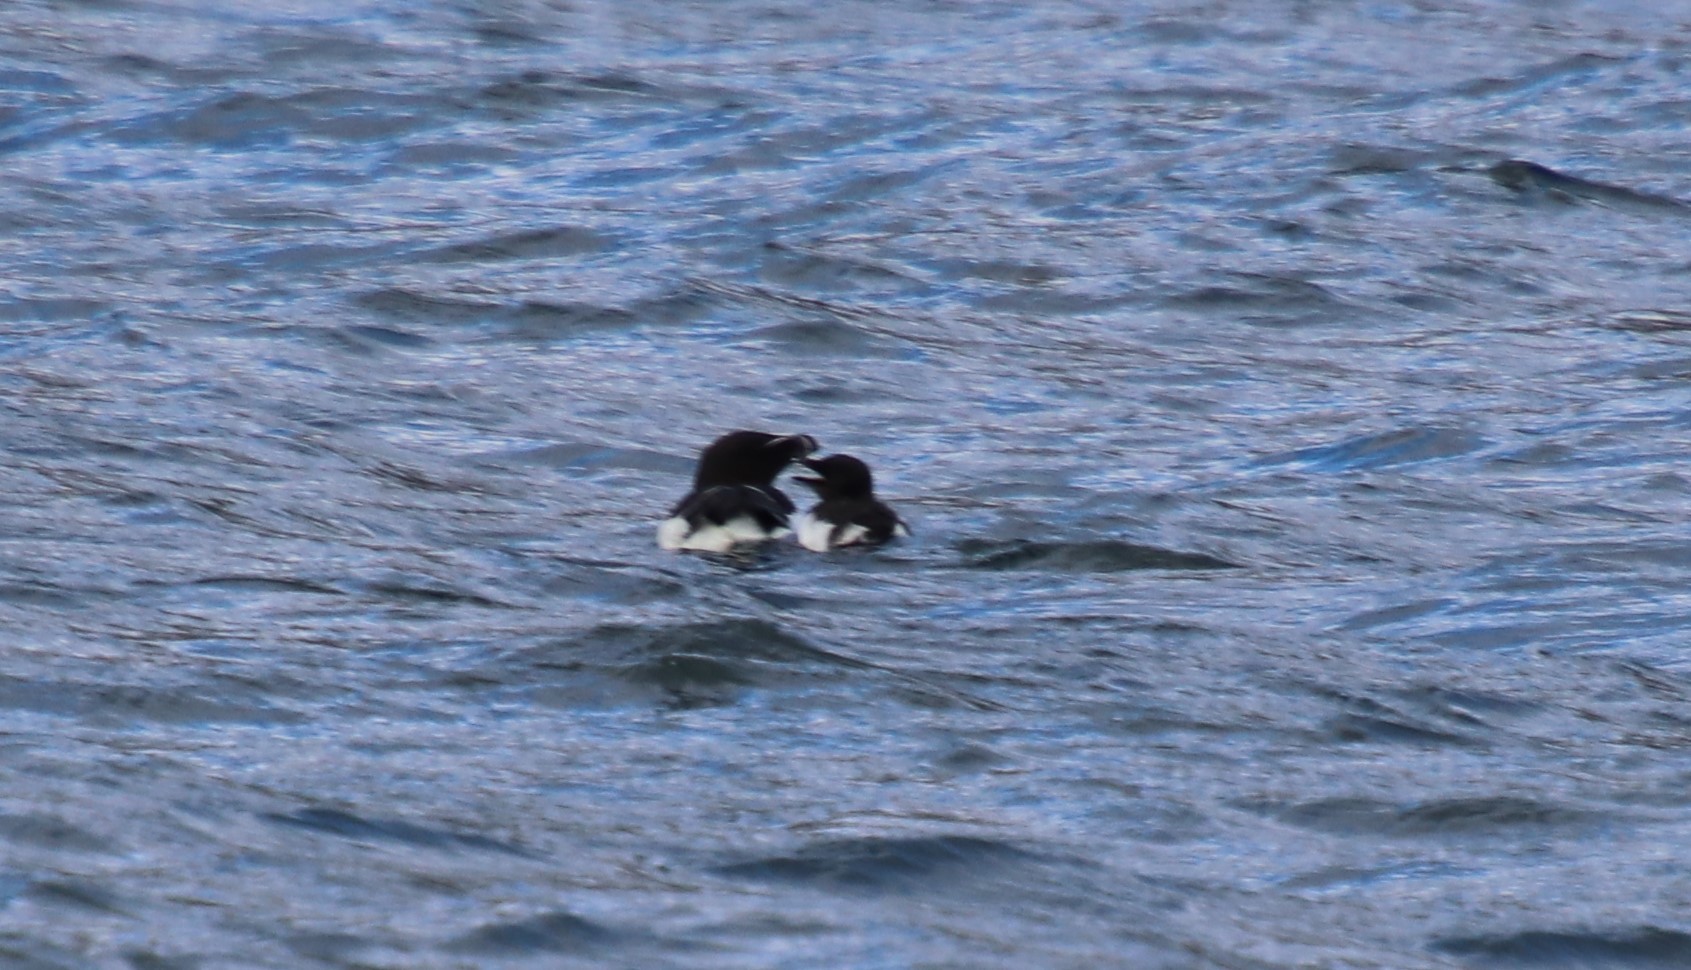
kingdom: Animalia
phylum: Chordata
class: Aves
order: Charadriiformes
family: Alcidae
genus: Alca
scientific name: Alca torda
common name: Razorbill
